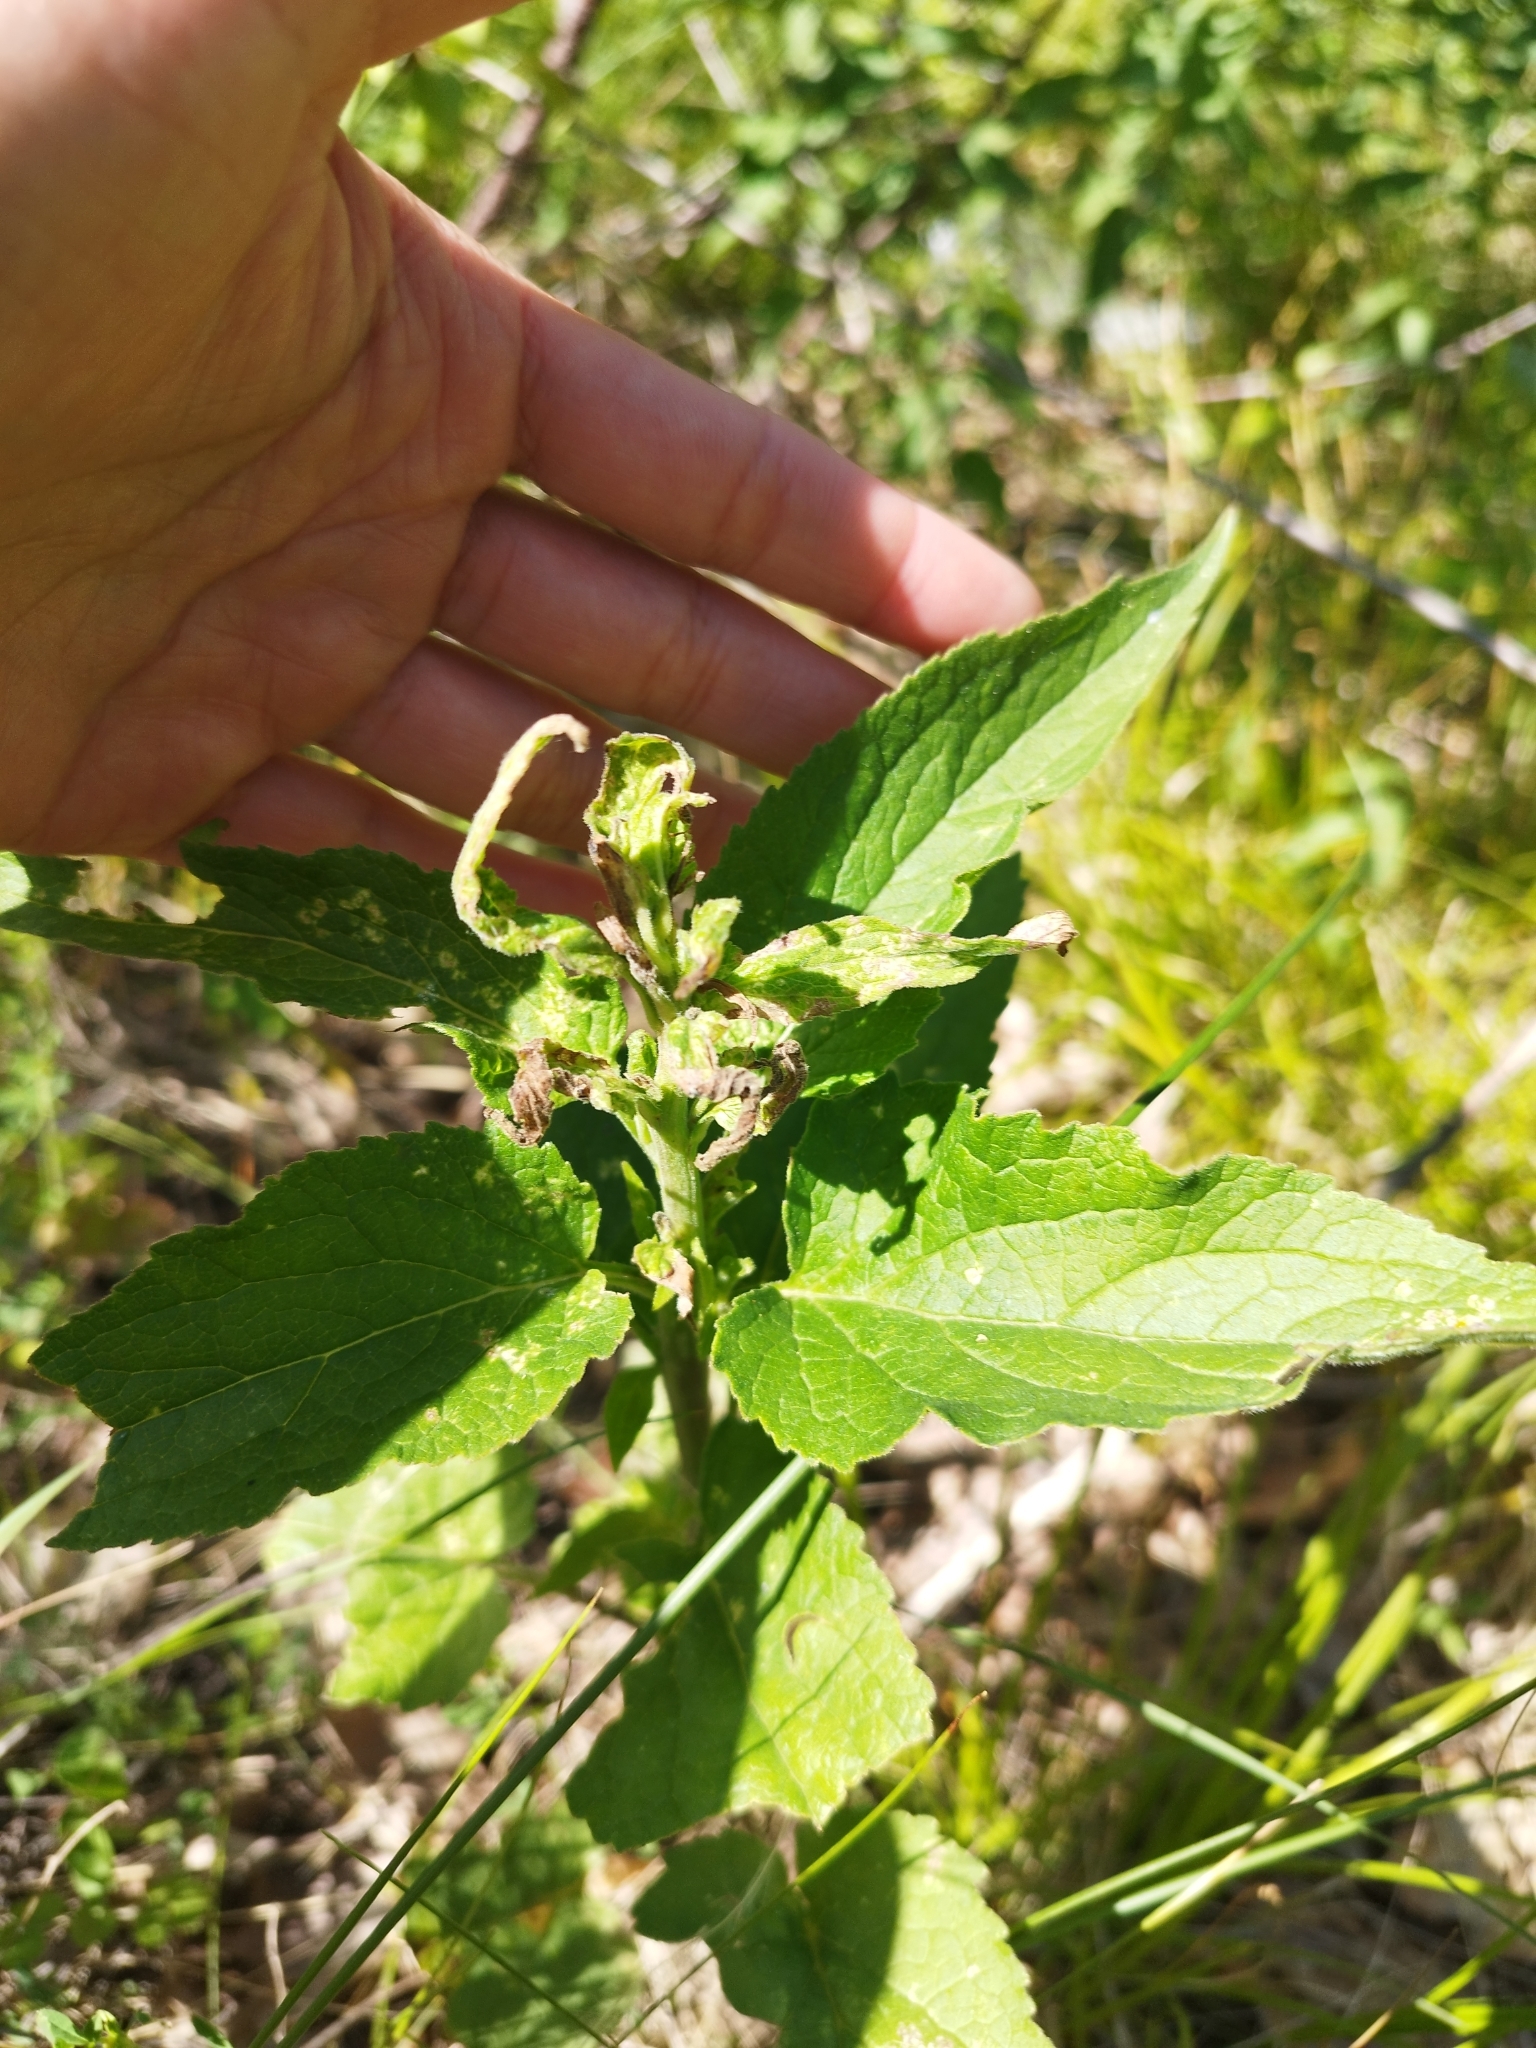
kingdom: Plantae
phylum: Tracheophyta
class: Magnoliopsida
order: Asterales
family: Campanulaceae
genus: Campanula
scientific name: Campanula rapunculoides
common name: Creeping bellflower
